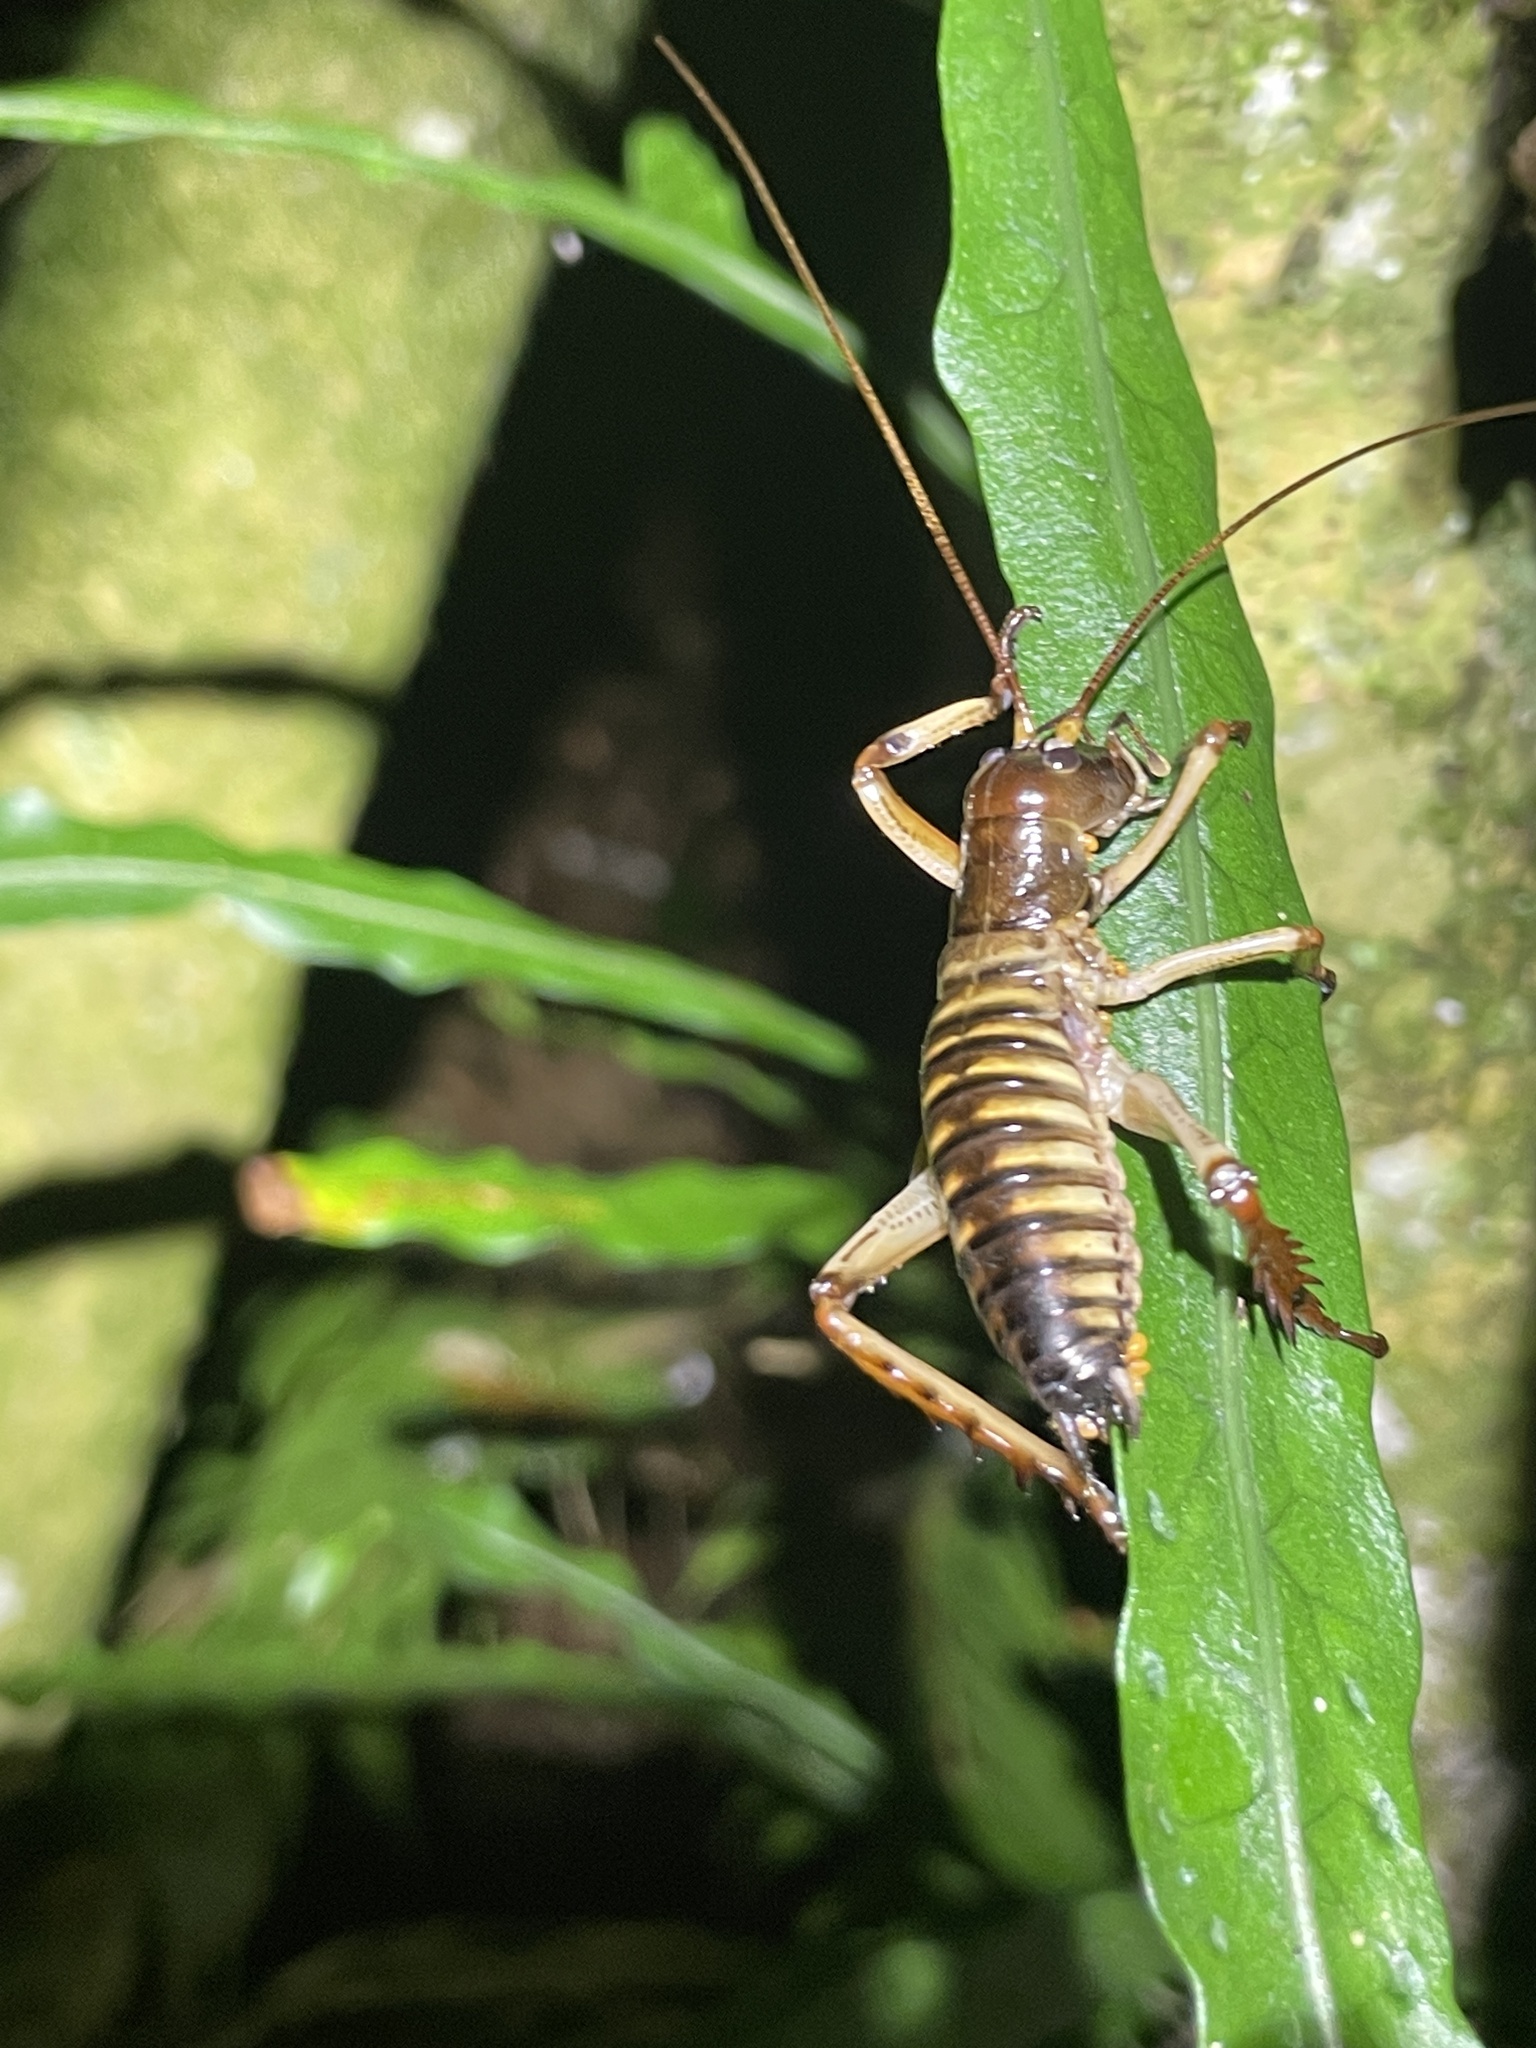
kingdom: Animalia
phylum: Arthropoda
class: Insecta
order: Orthoptera
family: Anostostomatidae
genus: Hemideina
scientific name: Hemideina crassidens
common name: Wellington tree weta
